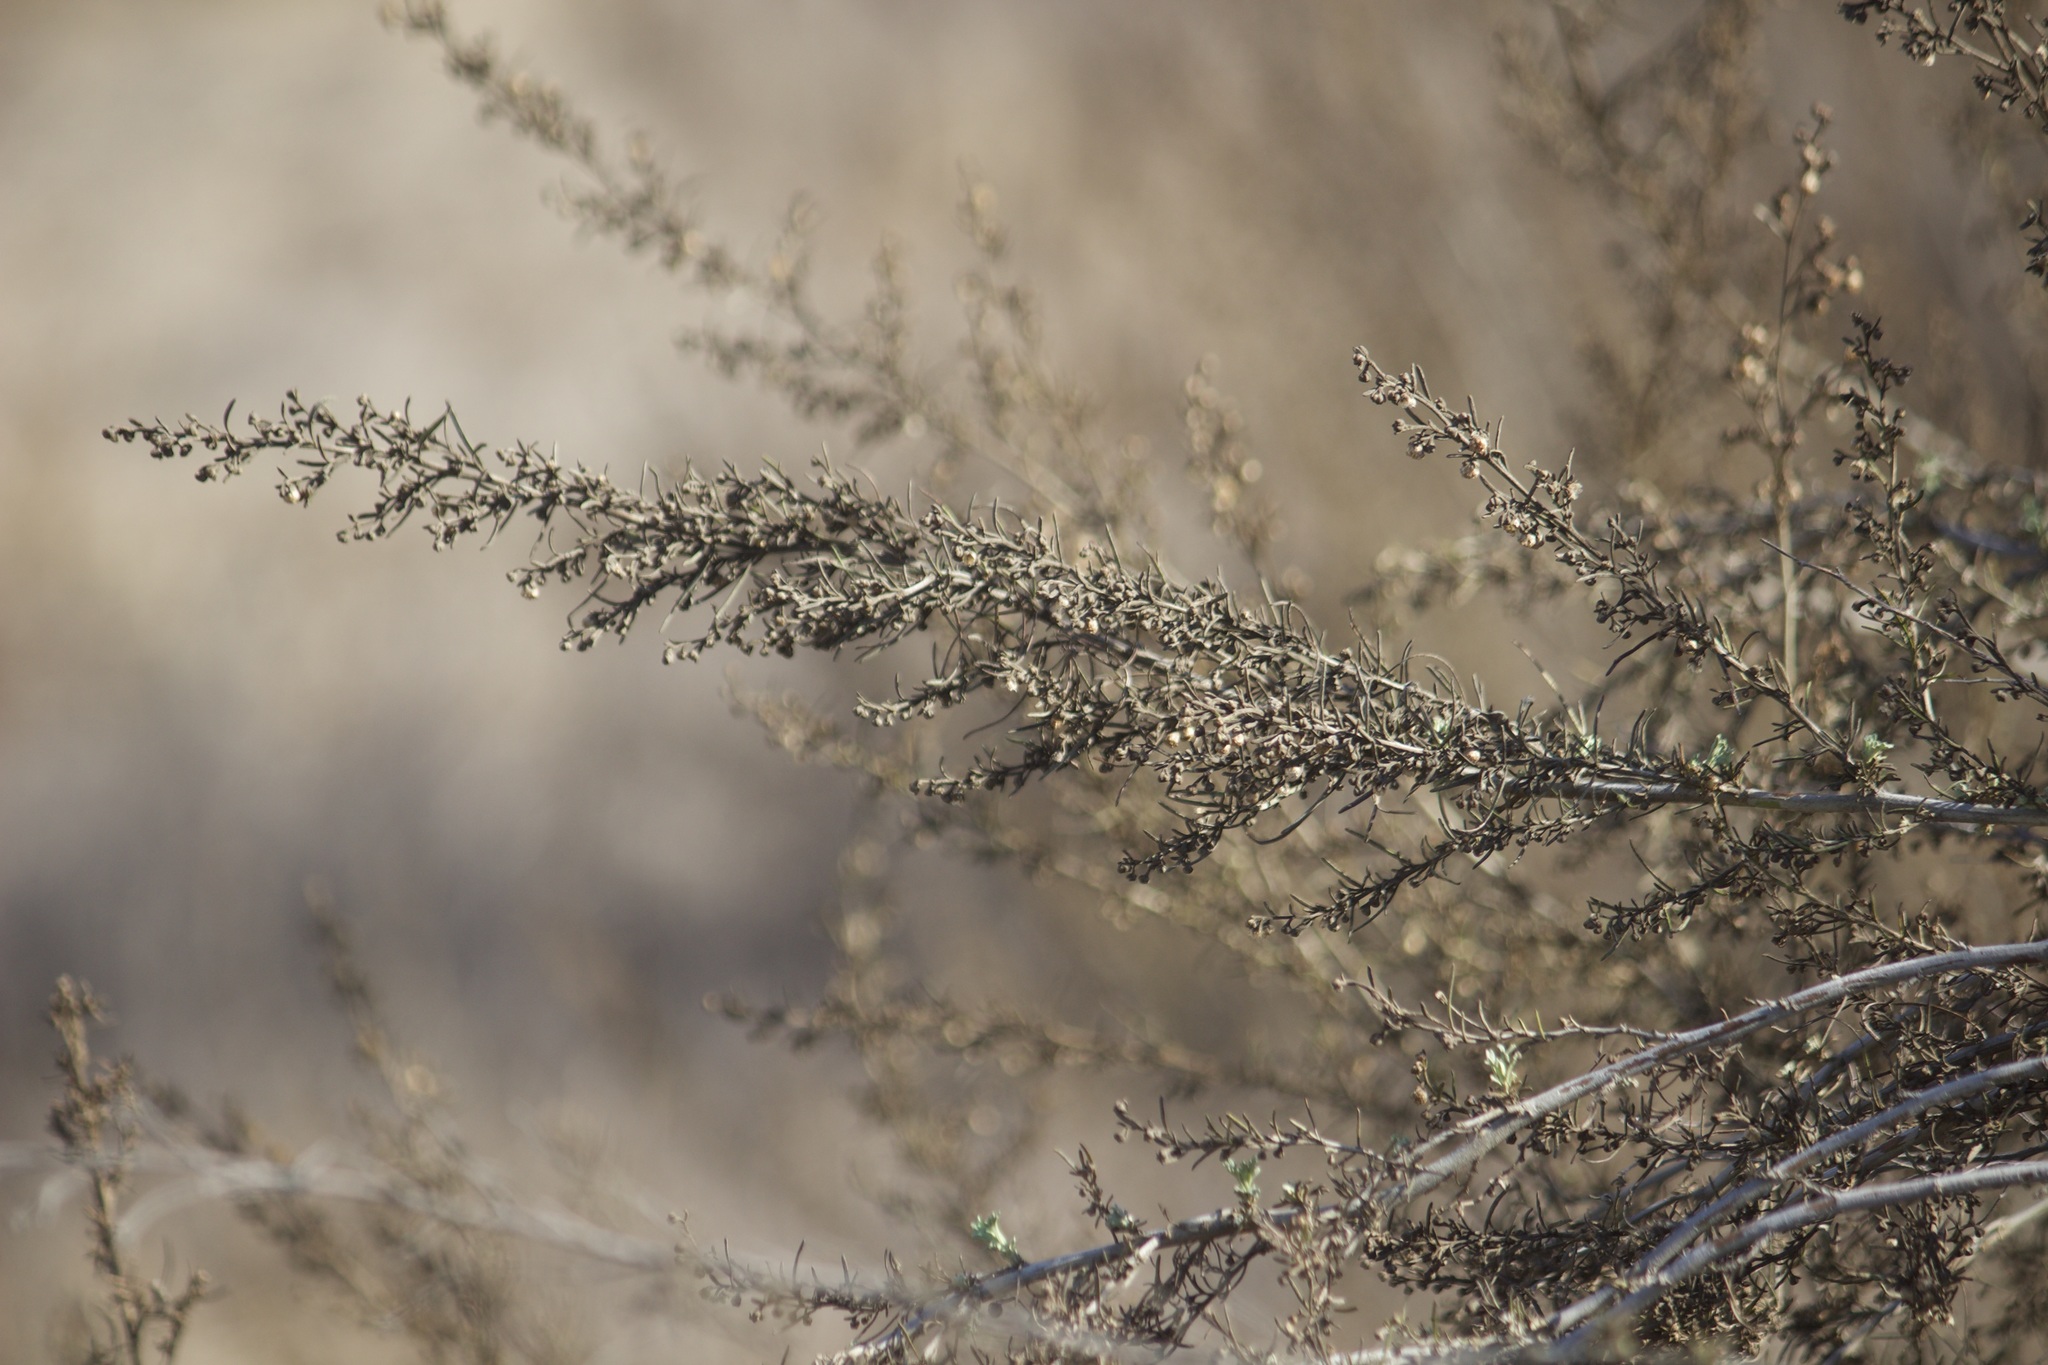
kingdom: Plantae
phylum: Tracheophyta
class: Magnoliopsida
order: Asterales
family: Asteraceae
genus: Artemisia
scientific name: Artemisia californica
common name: California sagebrush
